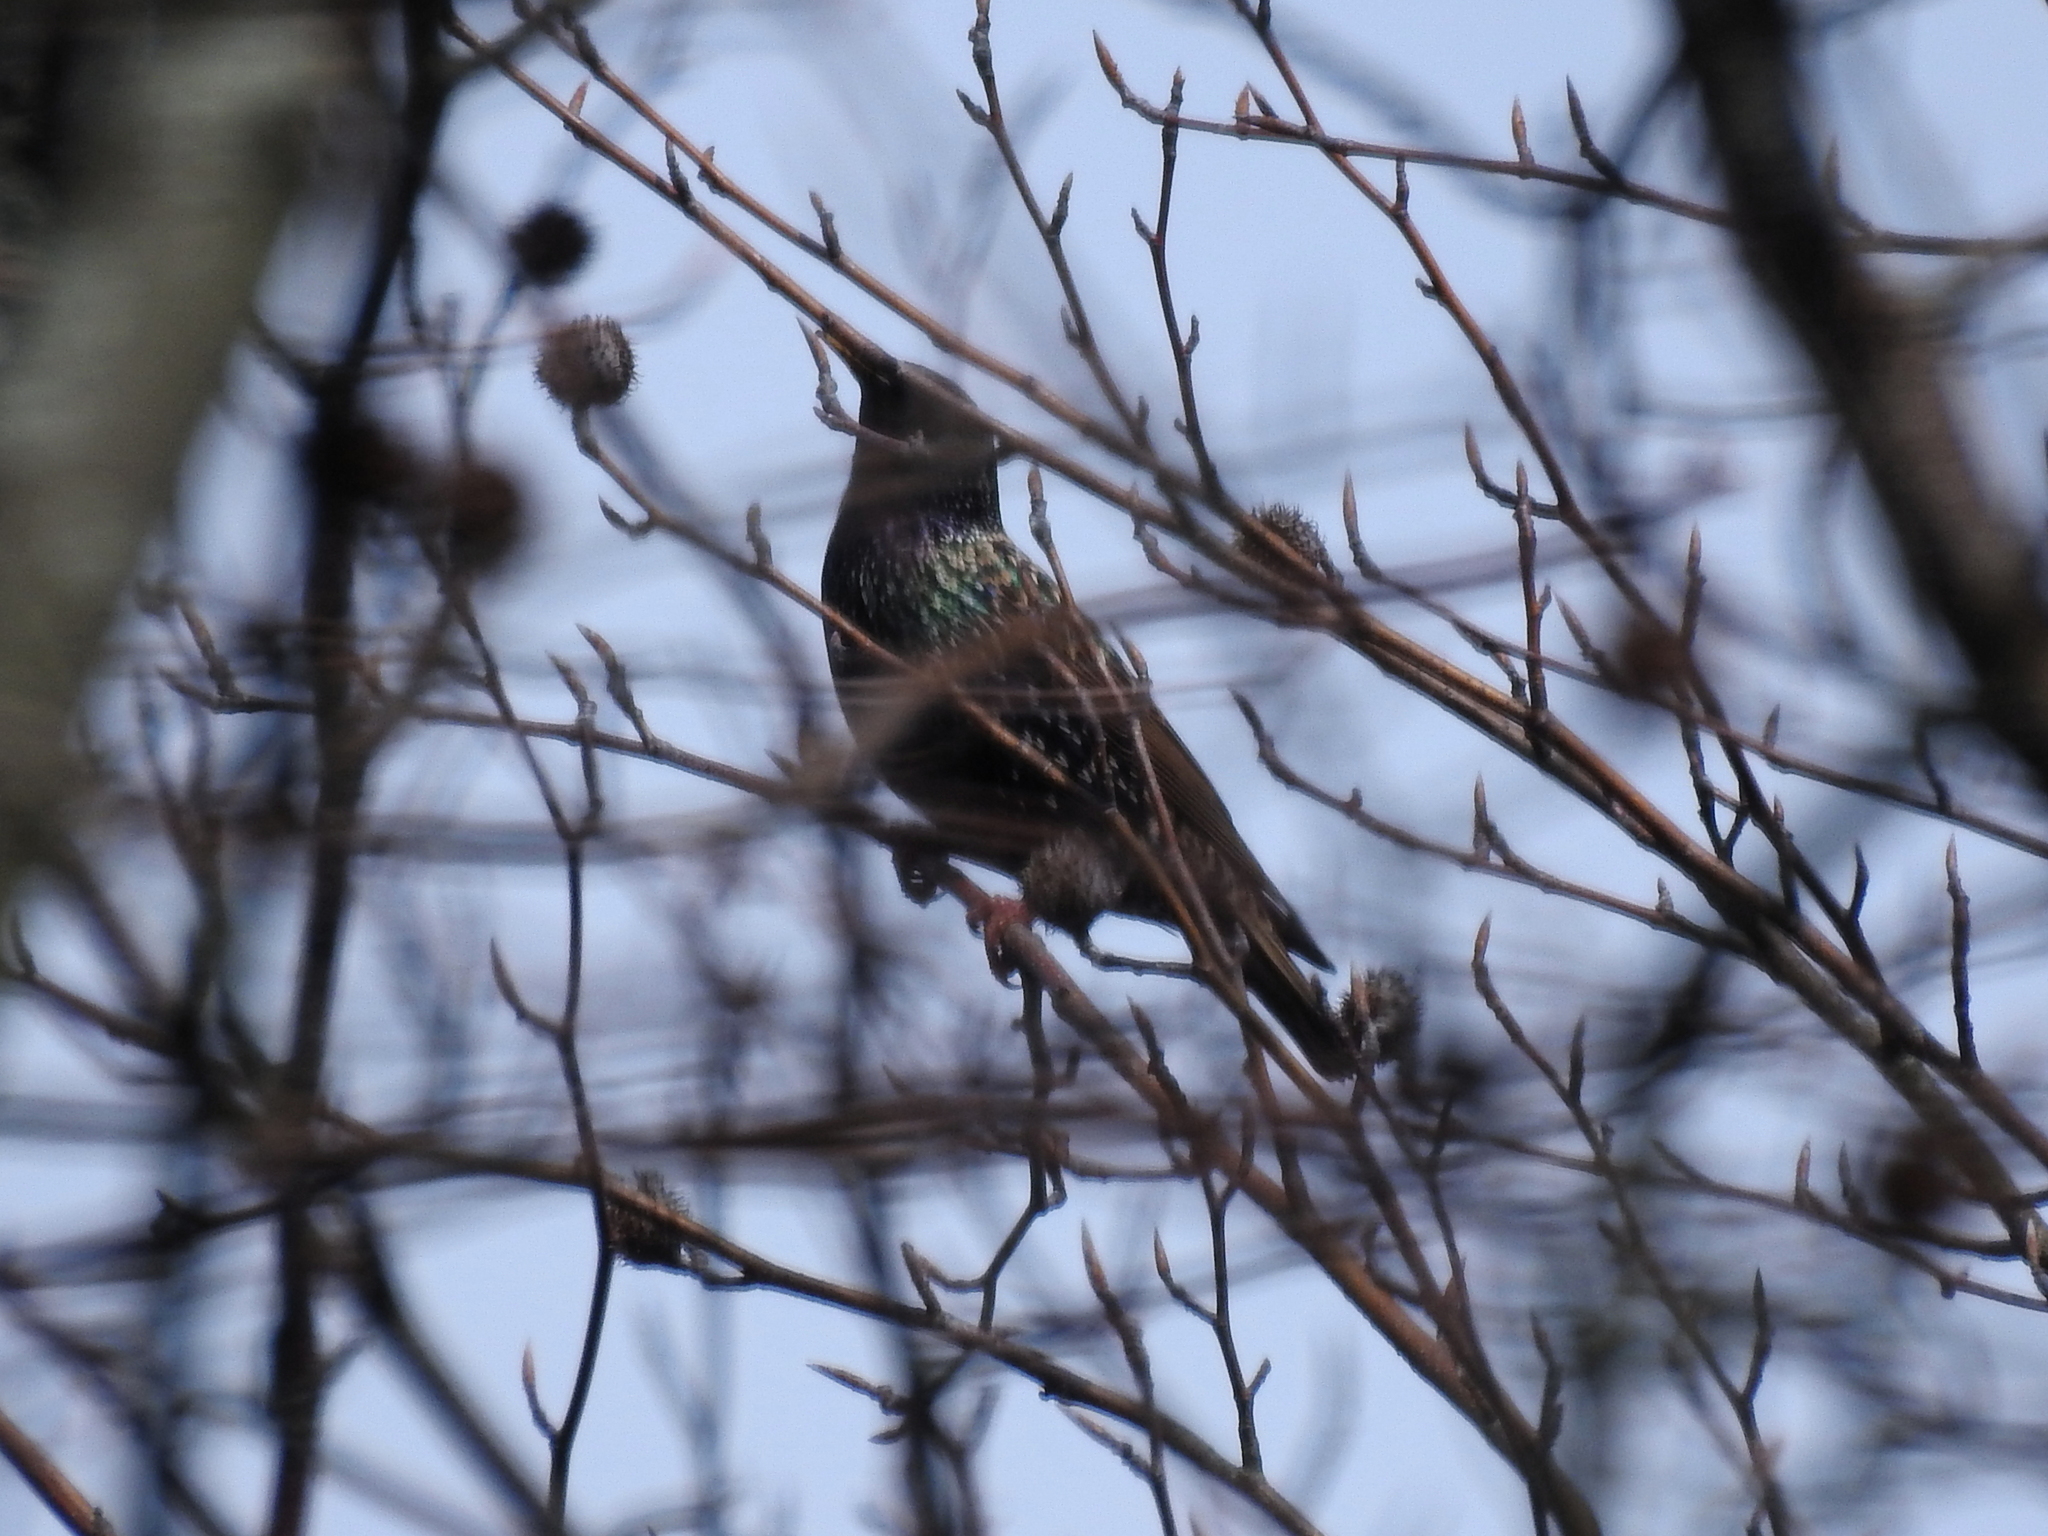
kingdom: Animalia
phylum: Chordata
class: Aves
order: Passeriformes
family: Sturnidae
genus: Sturnus
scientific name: Sturnus vulgaris
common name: Common starling
